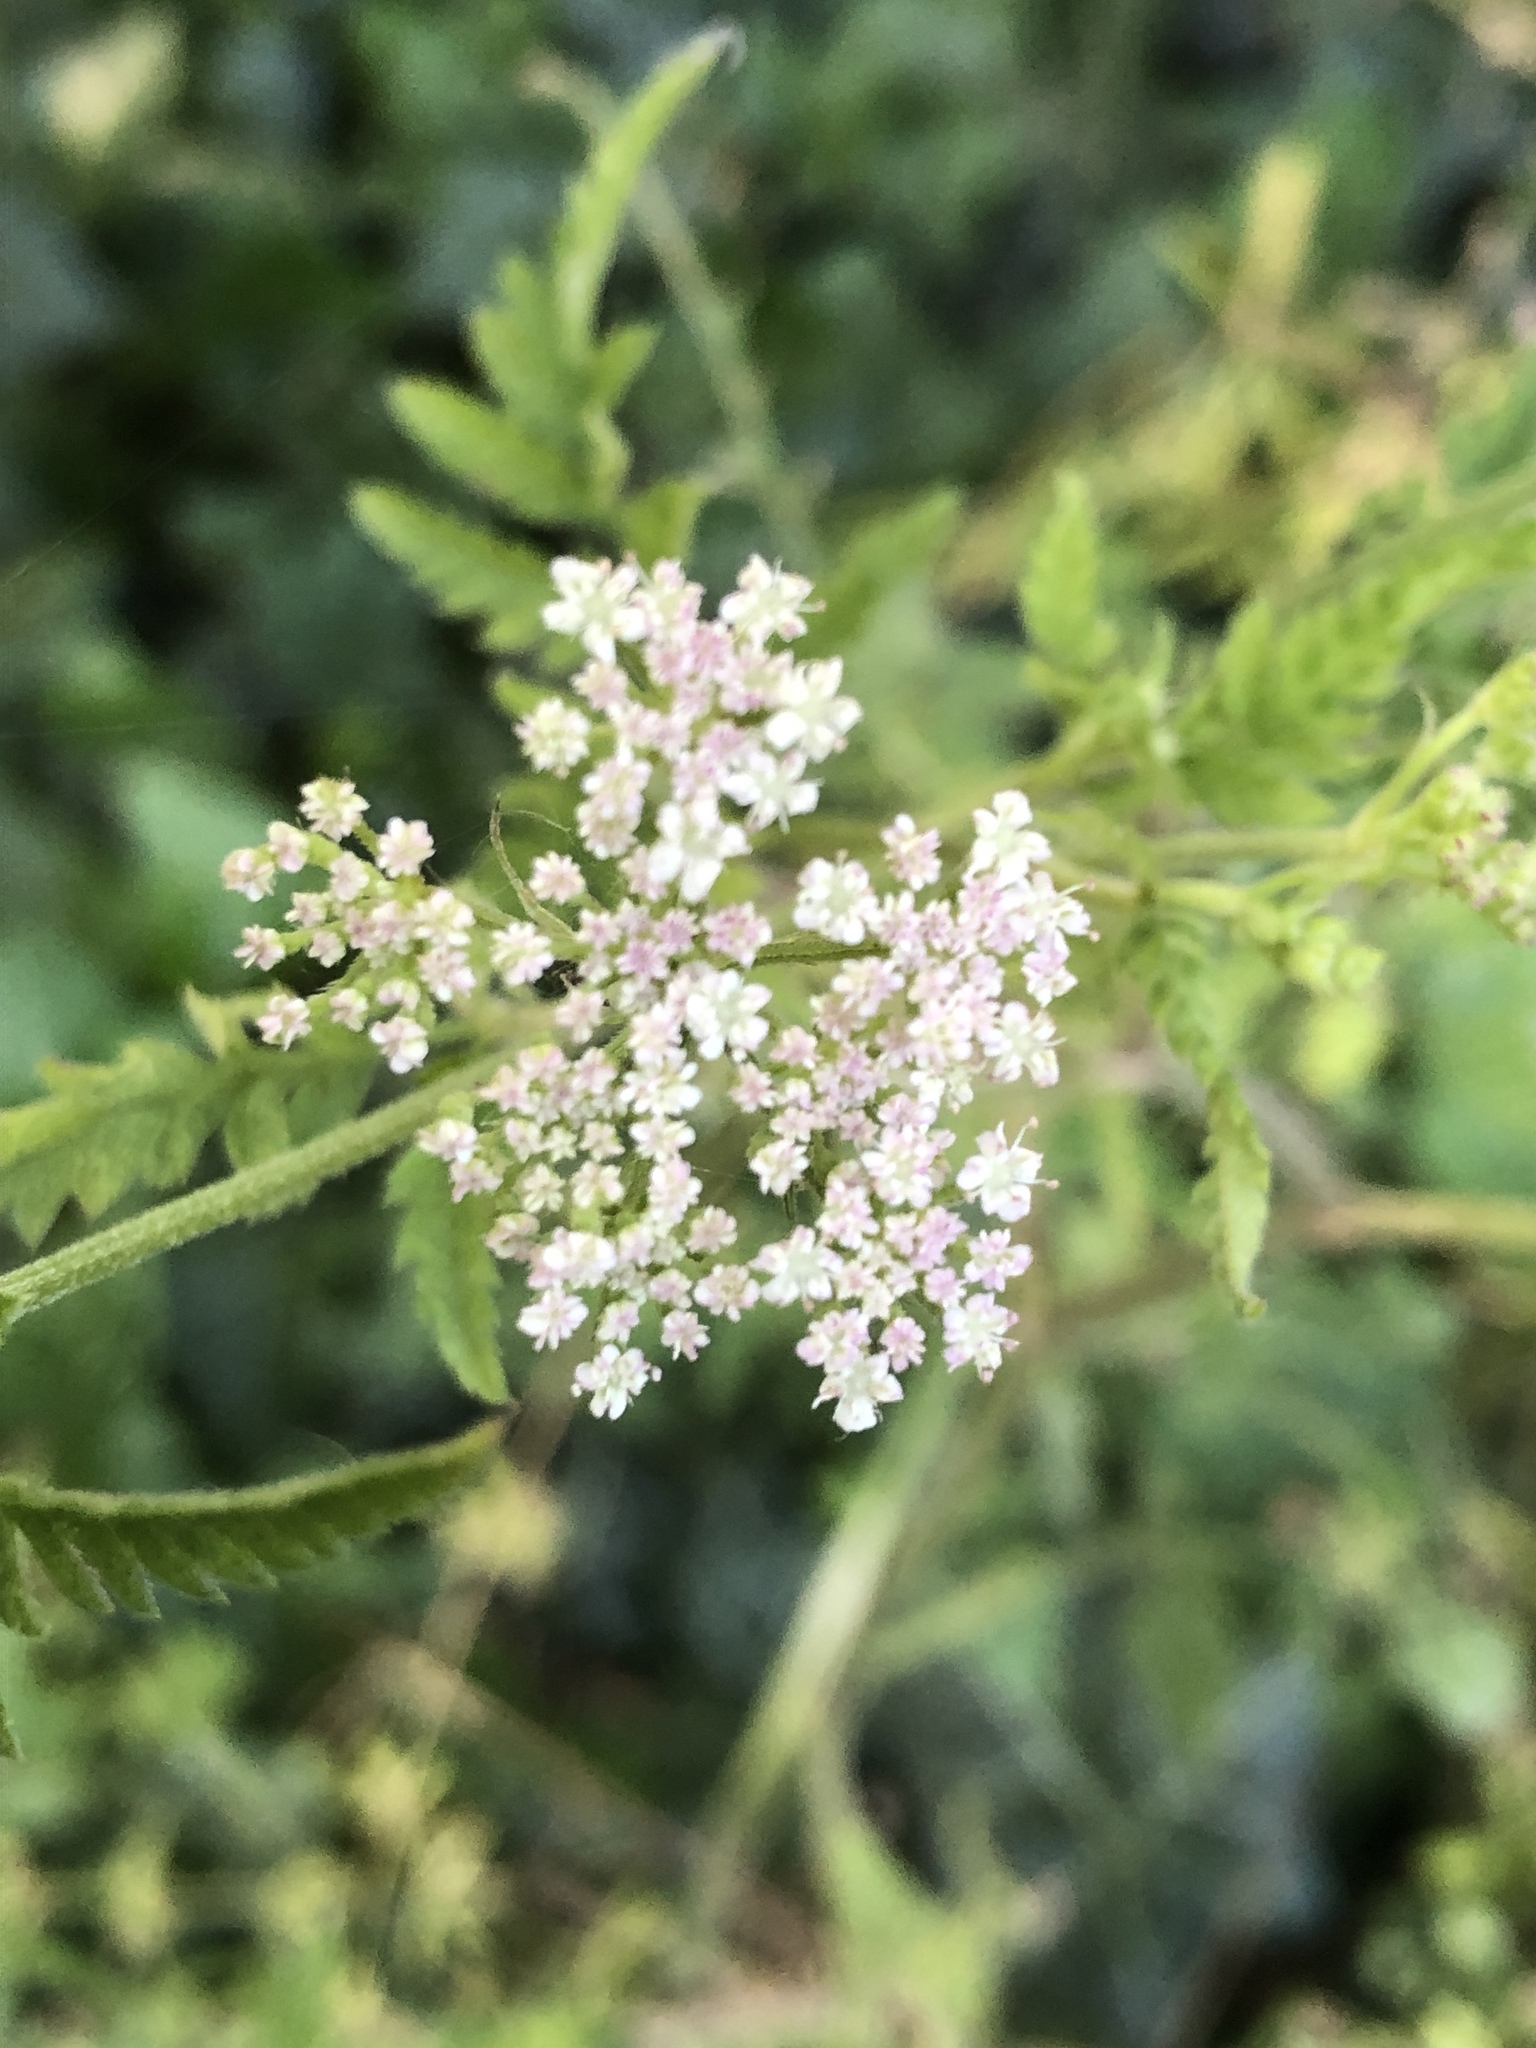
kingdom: Plantae
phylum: Tracheophyta
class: Magnoliopsida
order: Apiales
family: Apiaceae
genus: Torilis
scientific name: Torilis japonica
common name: Upright hedge-parsley
